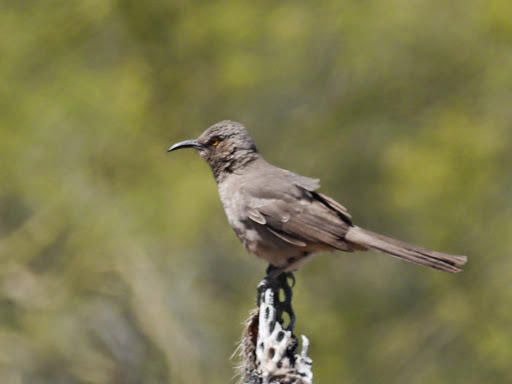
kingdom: Animalia
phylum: Chordata
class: Aves
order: Passeriformes
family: Mimidae
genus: Toxostoma
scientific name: Toxostoma curvirostre
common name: Curve-billed thrasher
